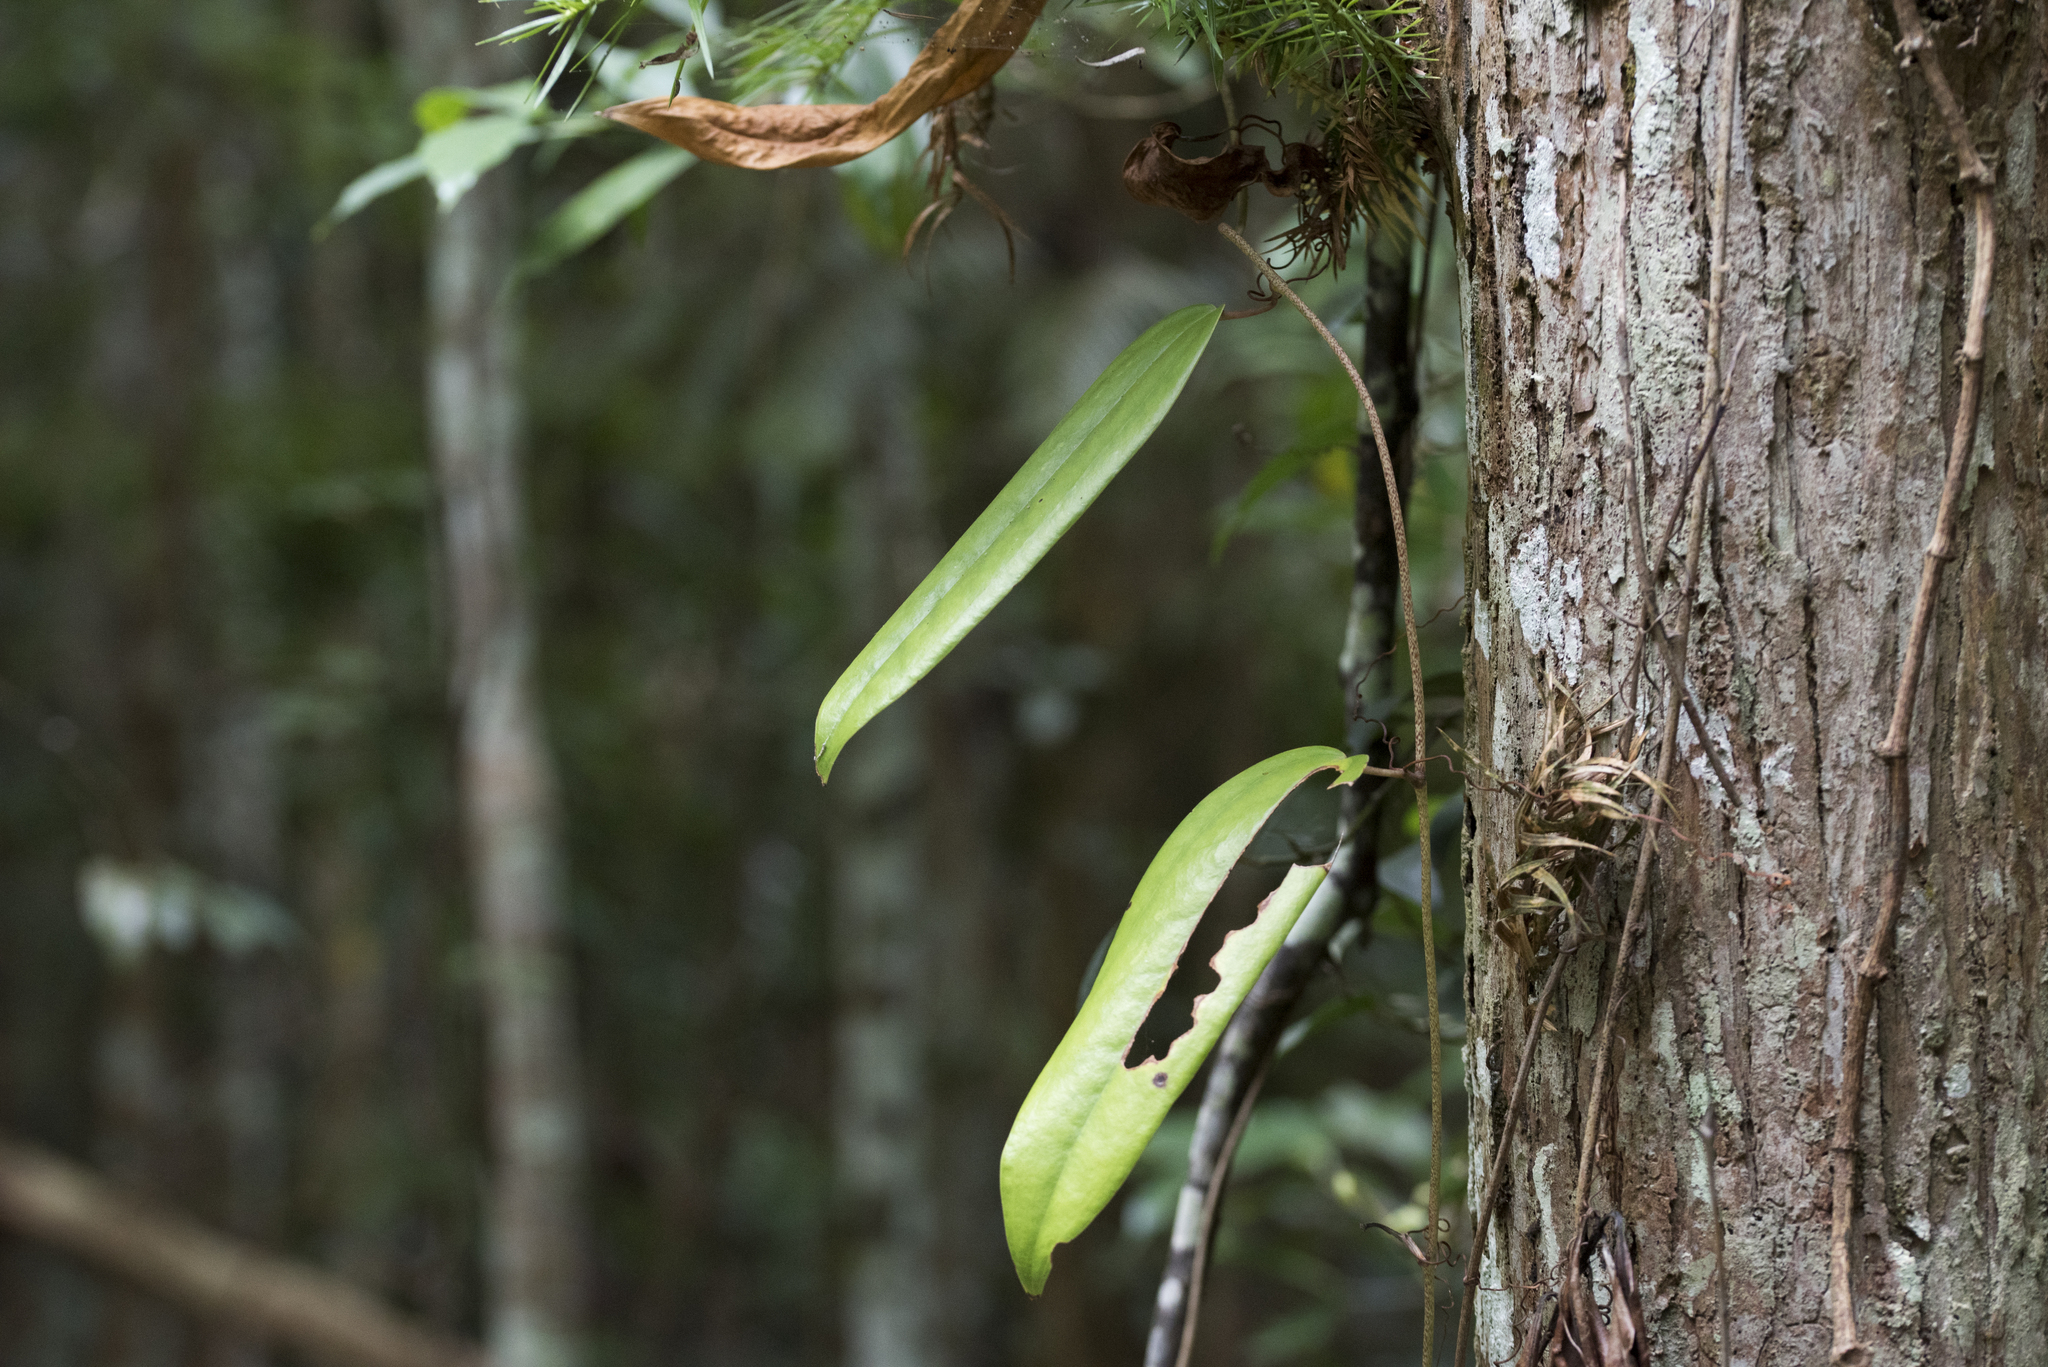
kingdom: Plantae
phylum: Tracheophyta
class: Liliopsida
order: Liliales
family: Smilacaceae
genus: Smilax
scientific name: Smilax luei
